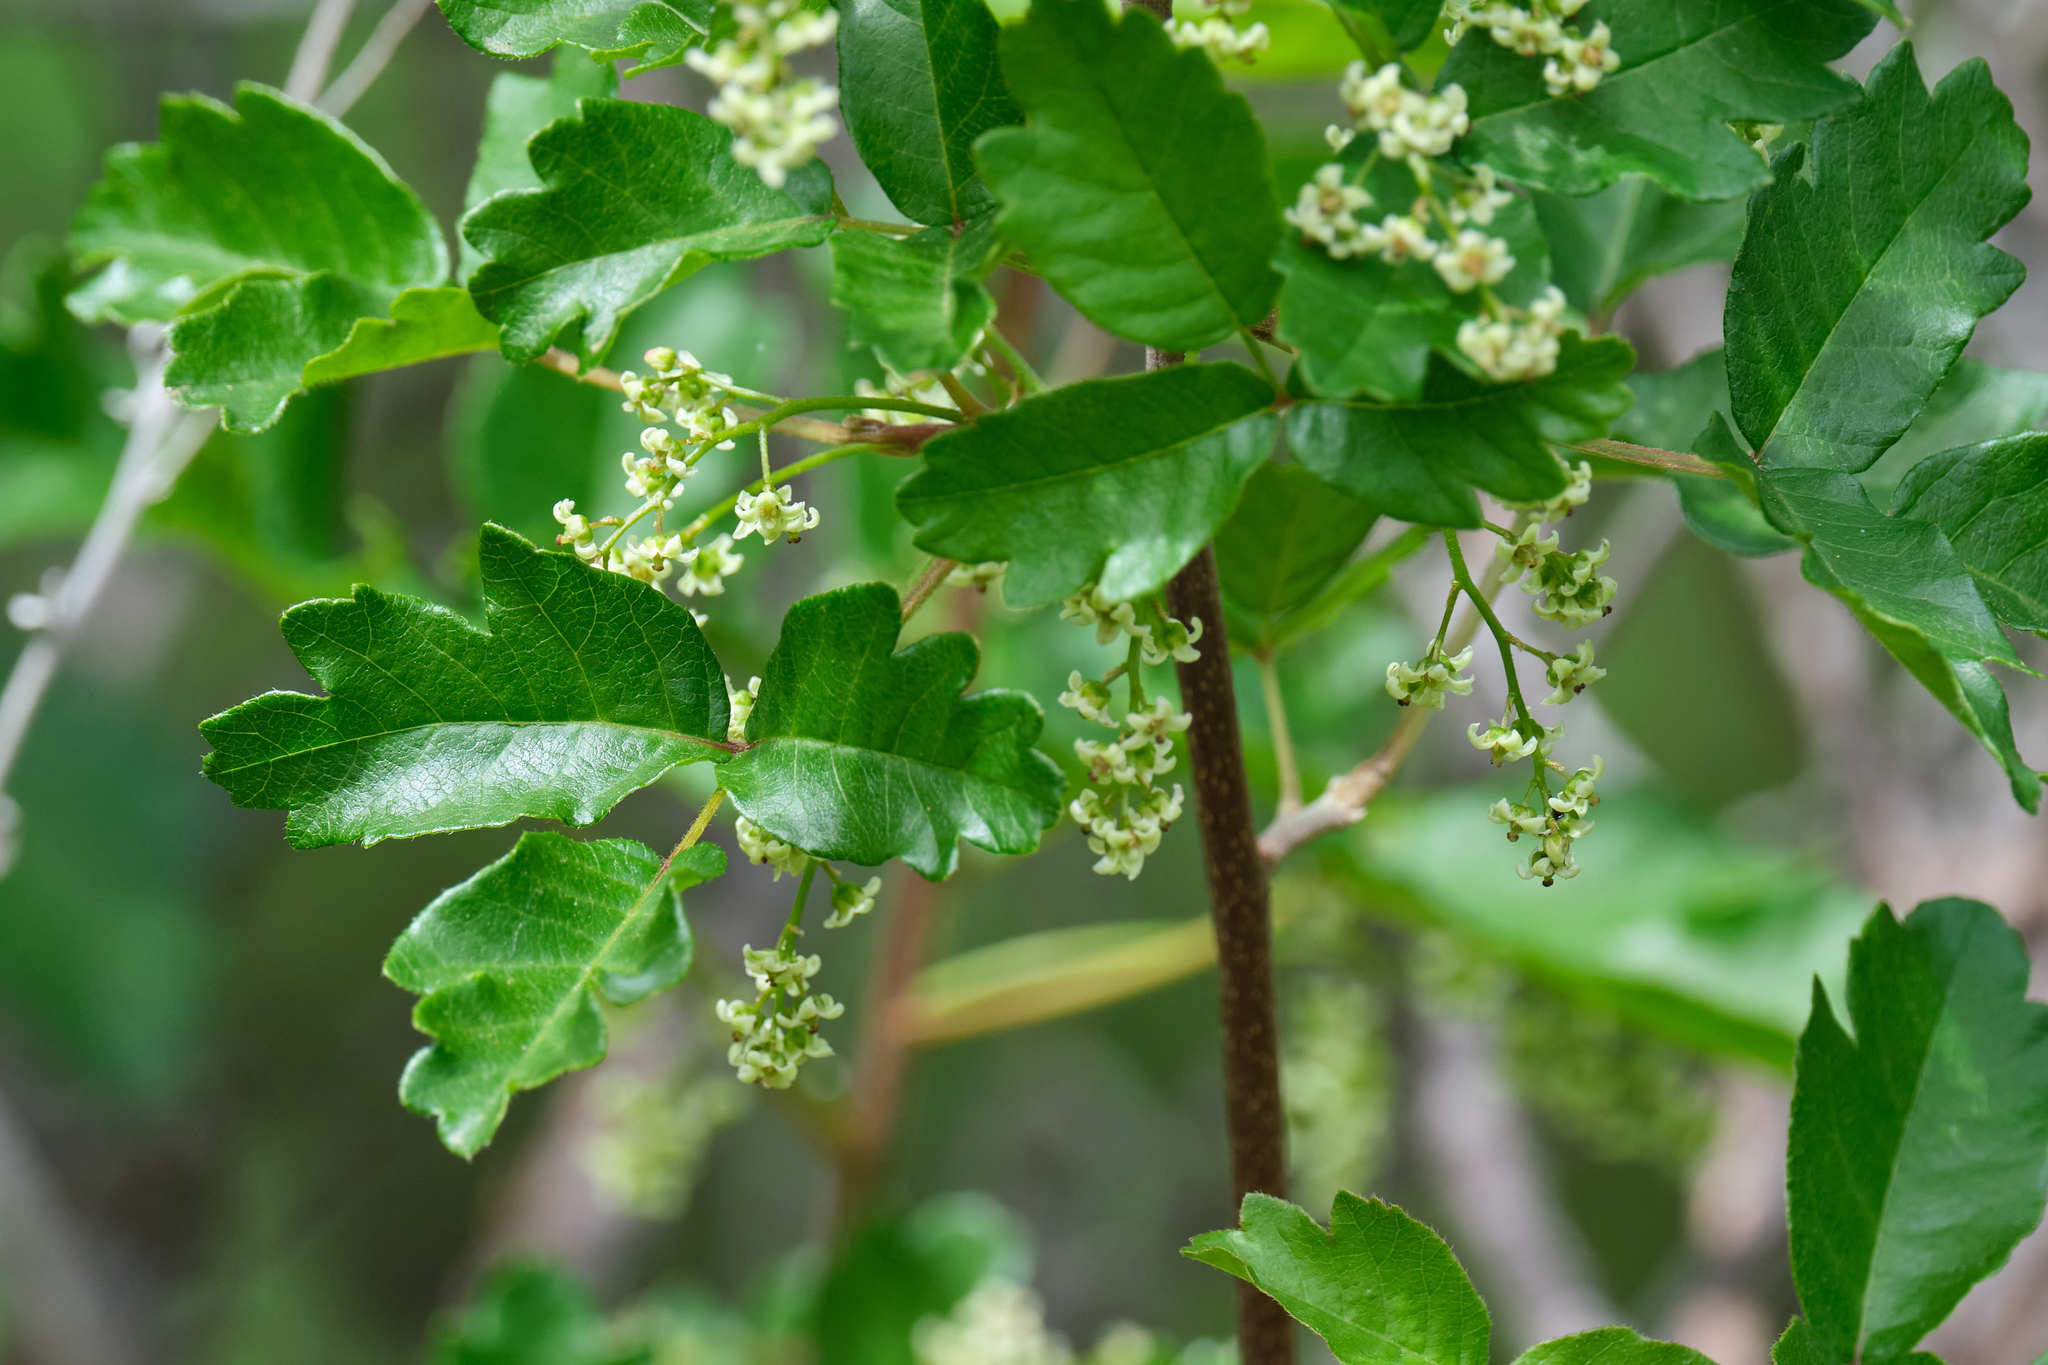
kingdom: Plantae
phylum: Tracheophyta
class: Magnoliopsida
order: Sapindales
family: Anacardiaceae
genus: Toxicodendron
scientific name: Toxicodendron diversilobum
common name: Pacific poison-oak
